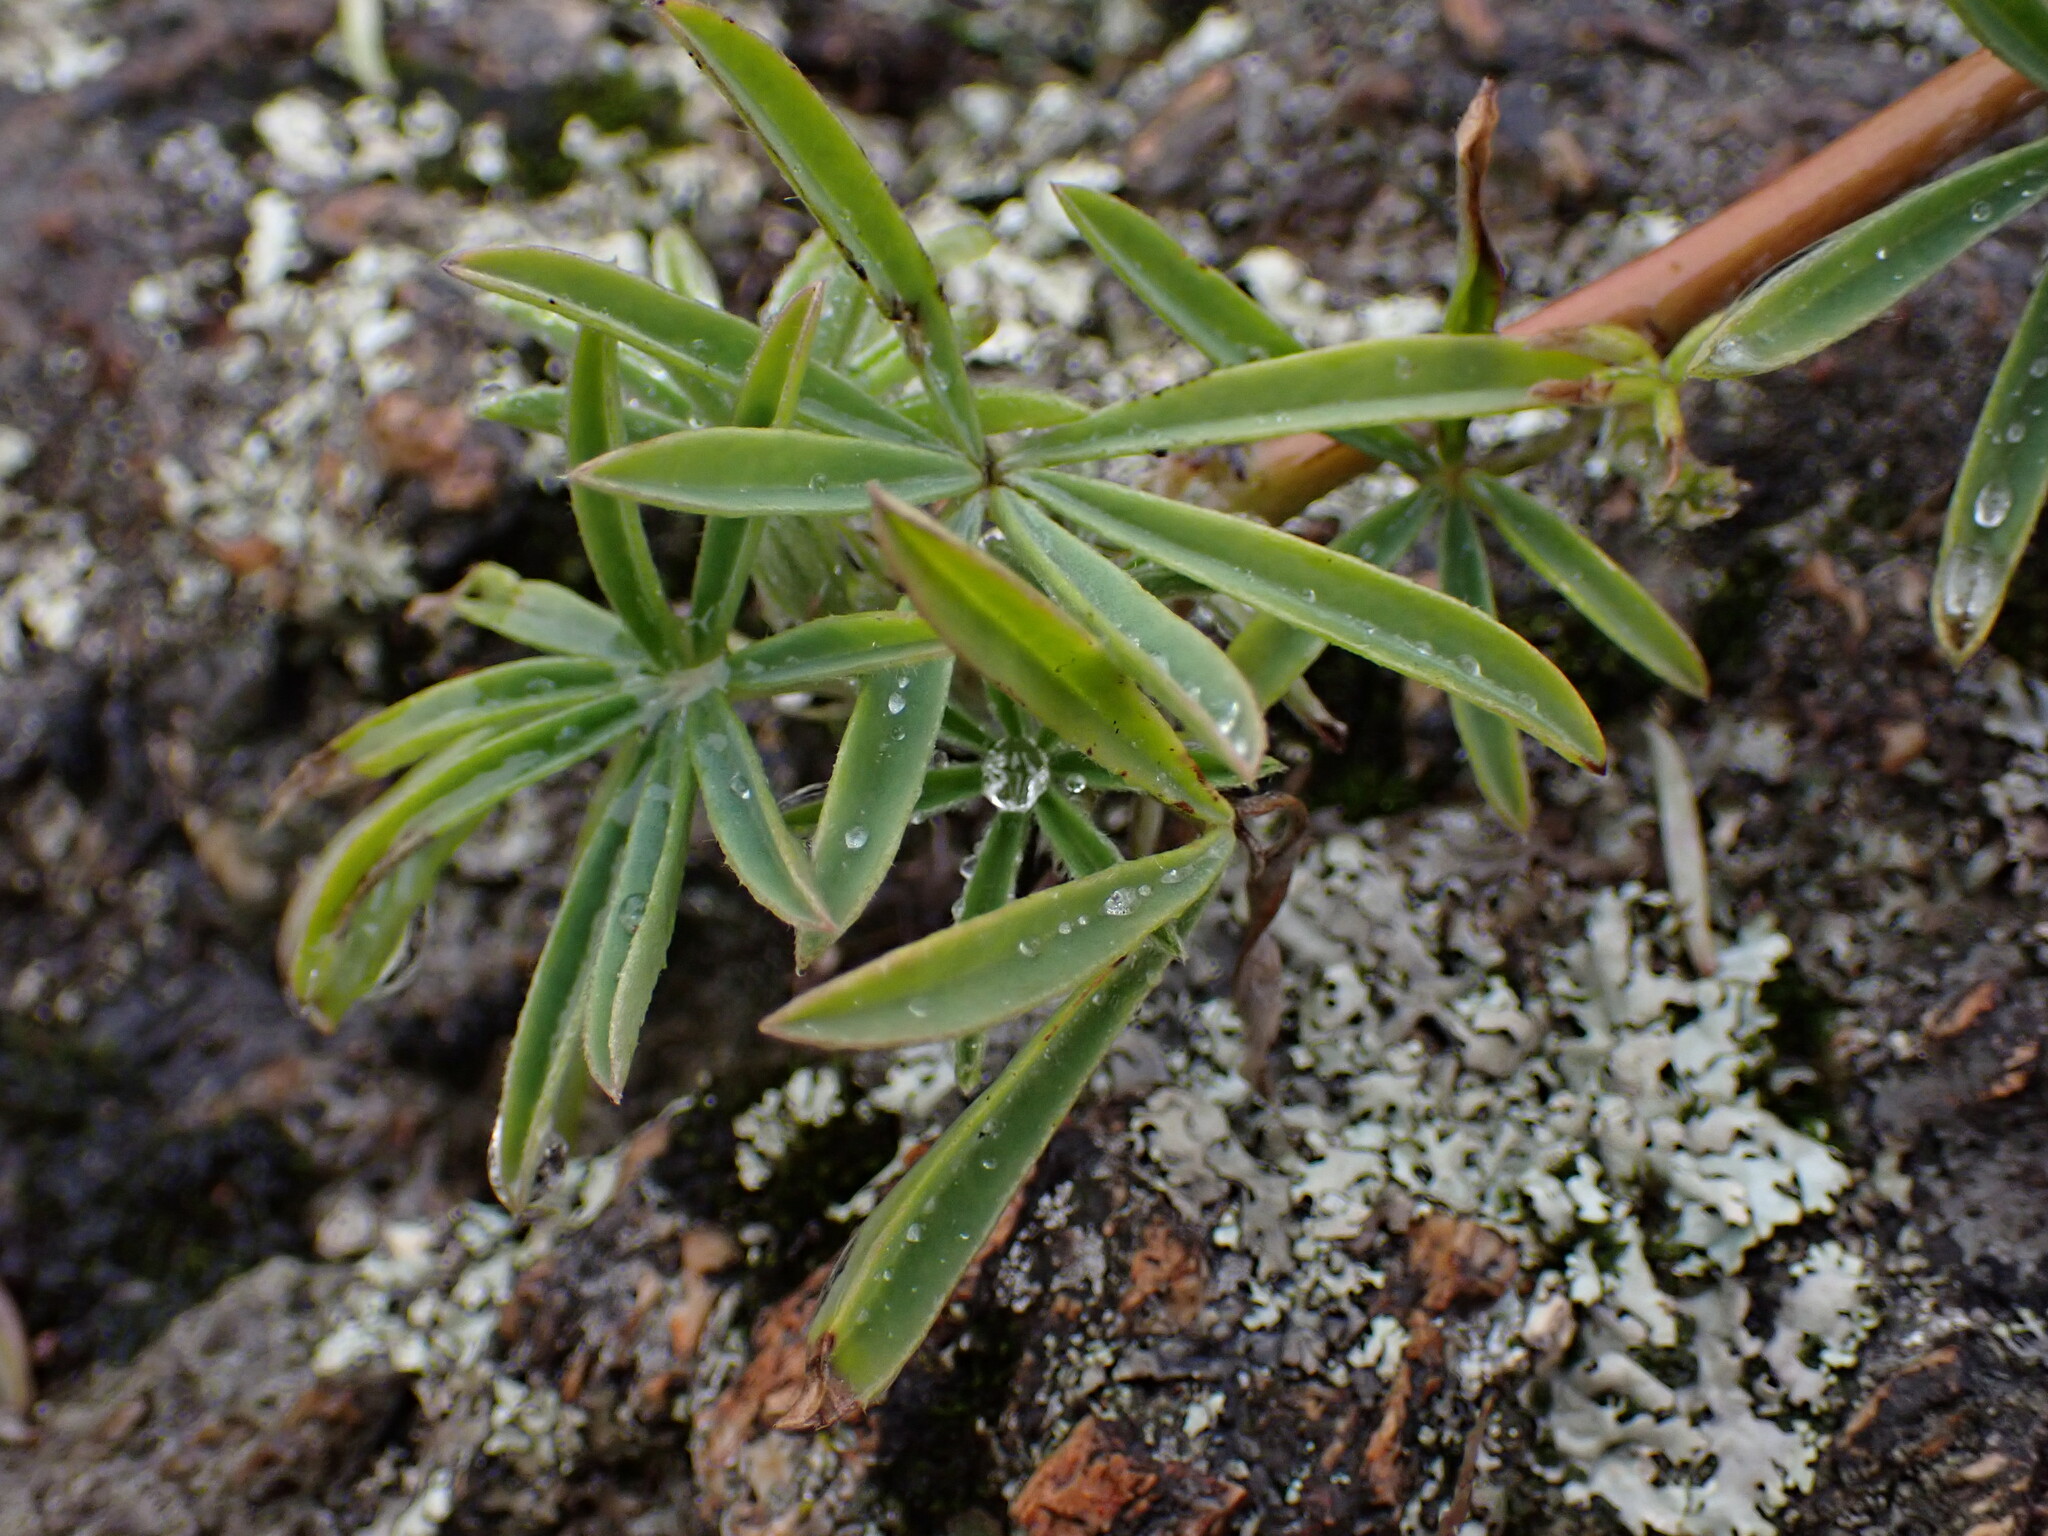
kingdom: Plantae
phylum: Tracheophyta
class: Magnoliopsida
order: Fabales
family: Fabaceae
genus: Lupinus
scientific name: Lupinus arboreus
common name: Yellow bush lupine
